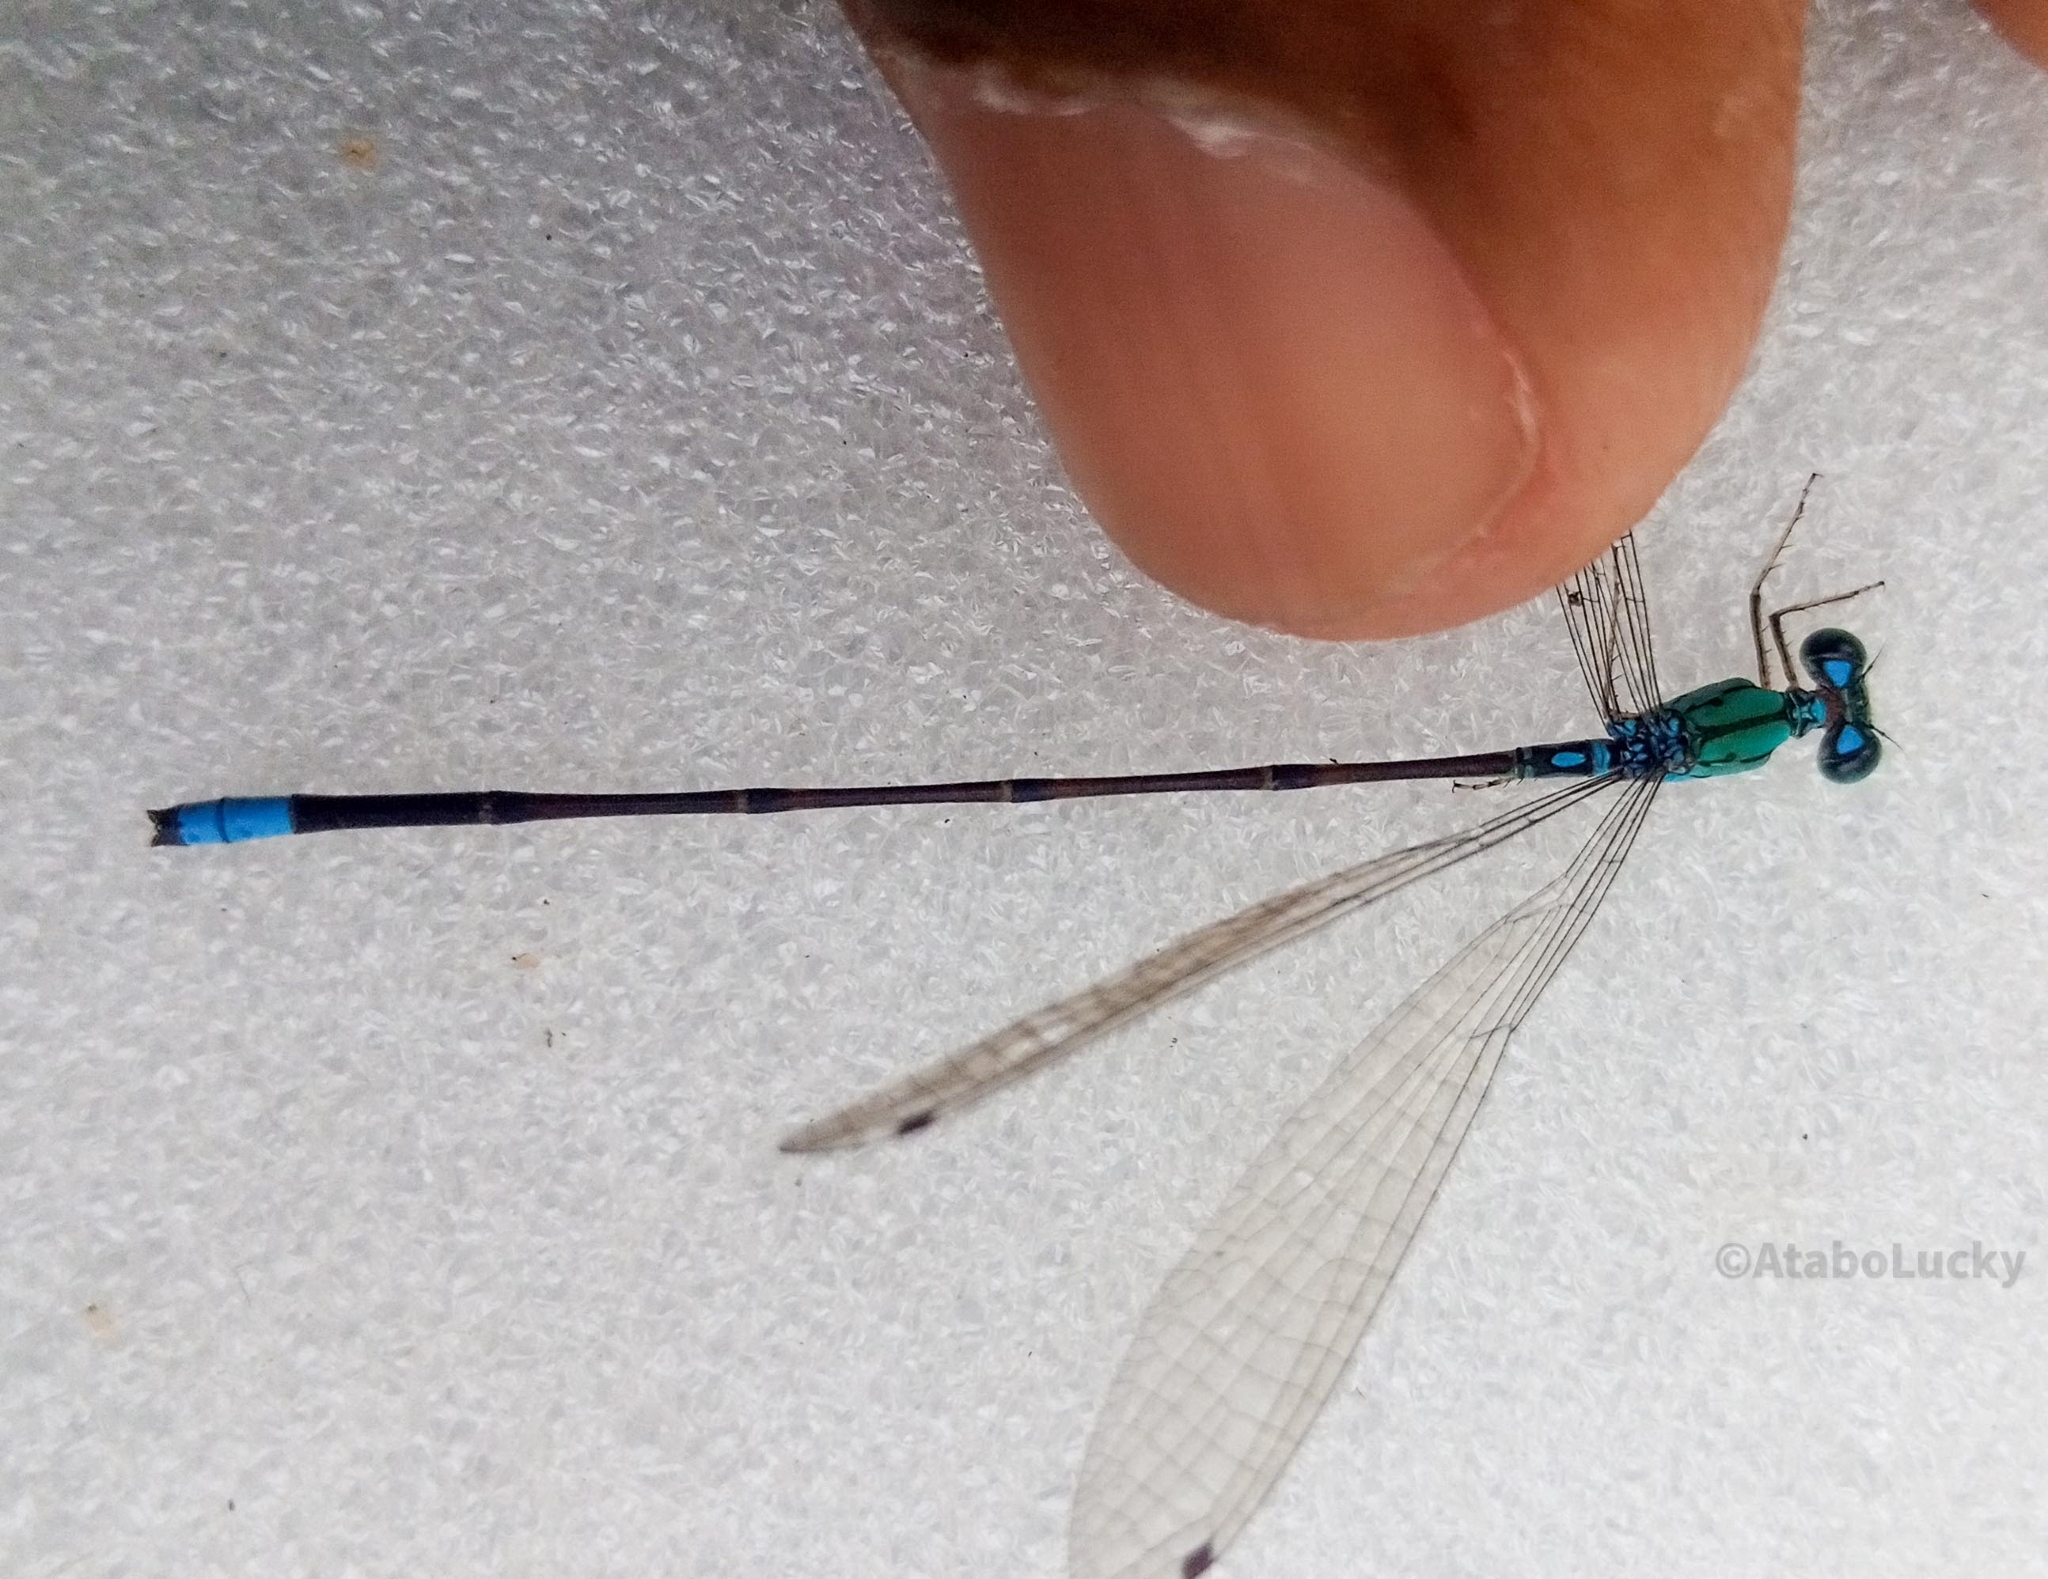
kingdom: Animalia
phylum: Arthropoda
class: Insecta
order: Odonata
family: Coenagrionidae
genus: Pseudagrion
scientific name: Pseudagrion glaucescens
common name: Blue-green sprite
